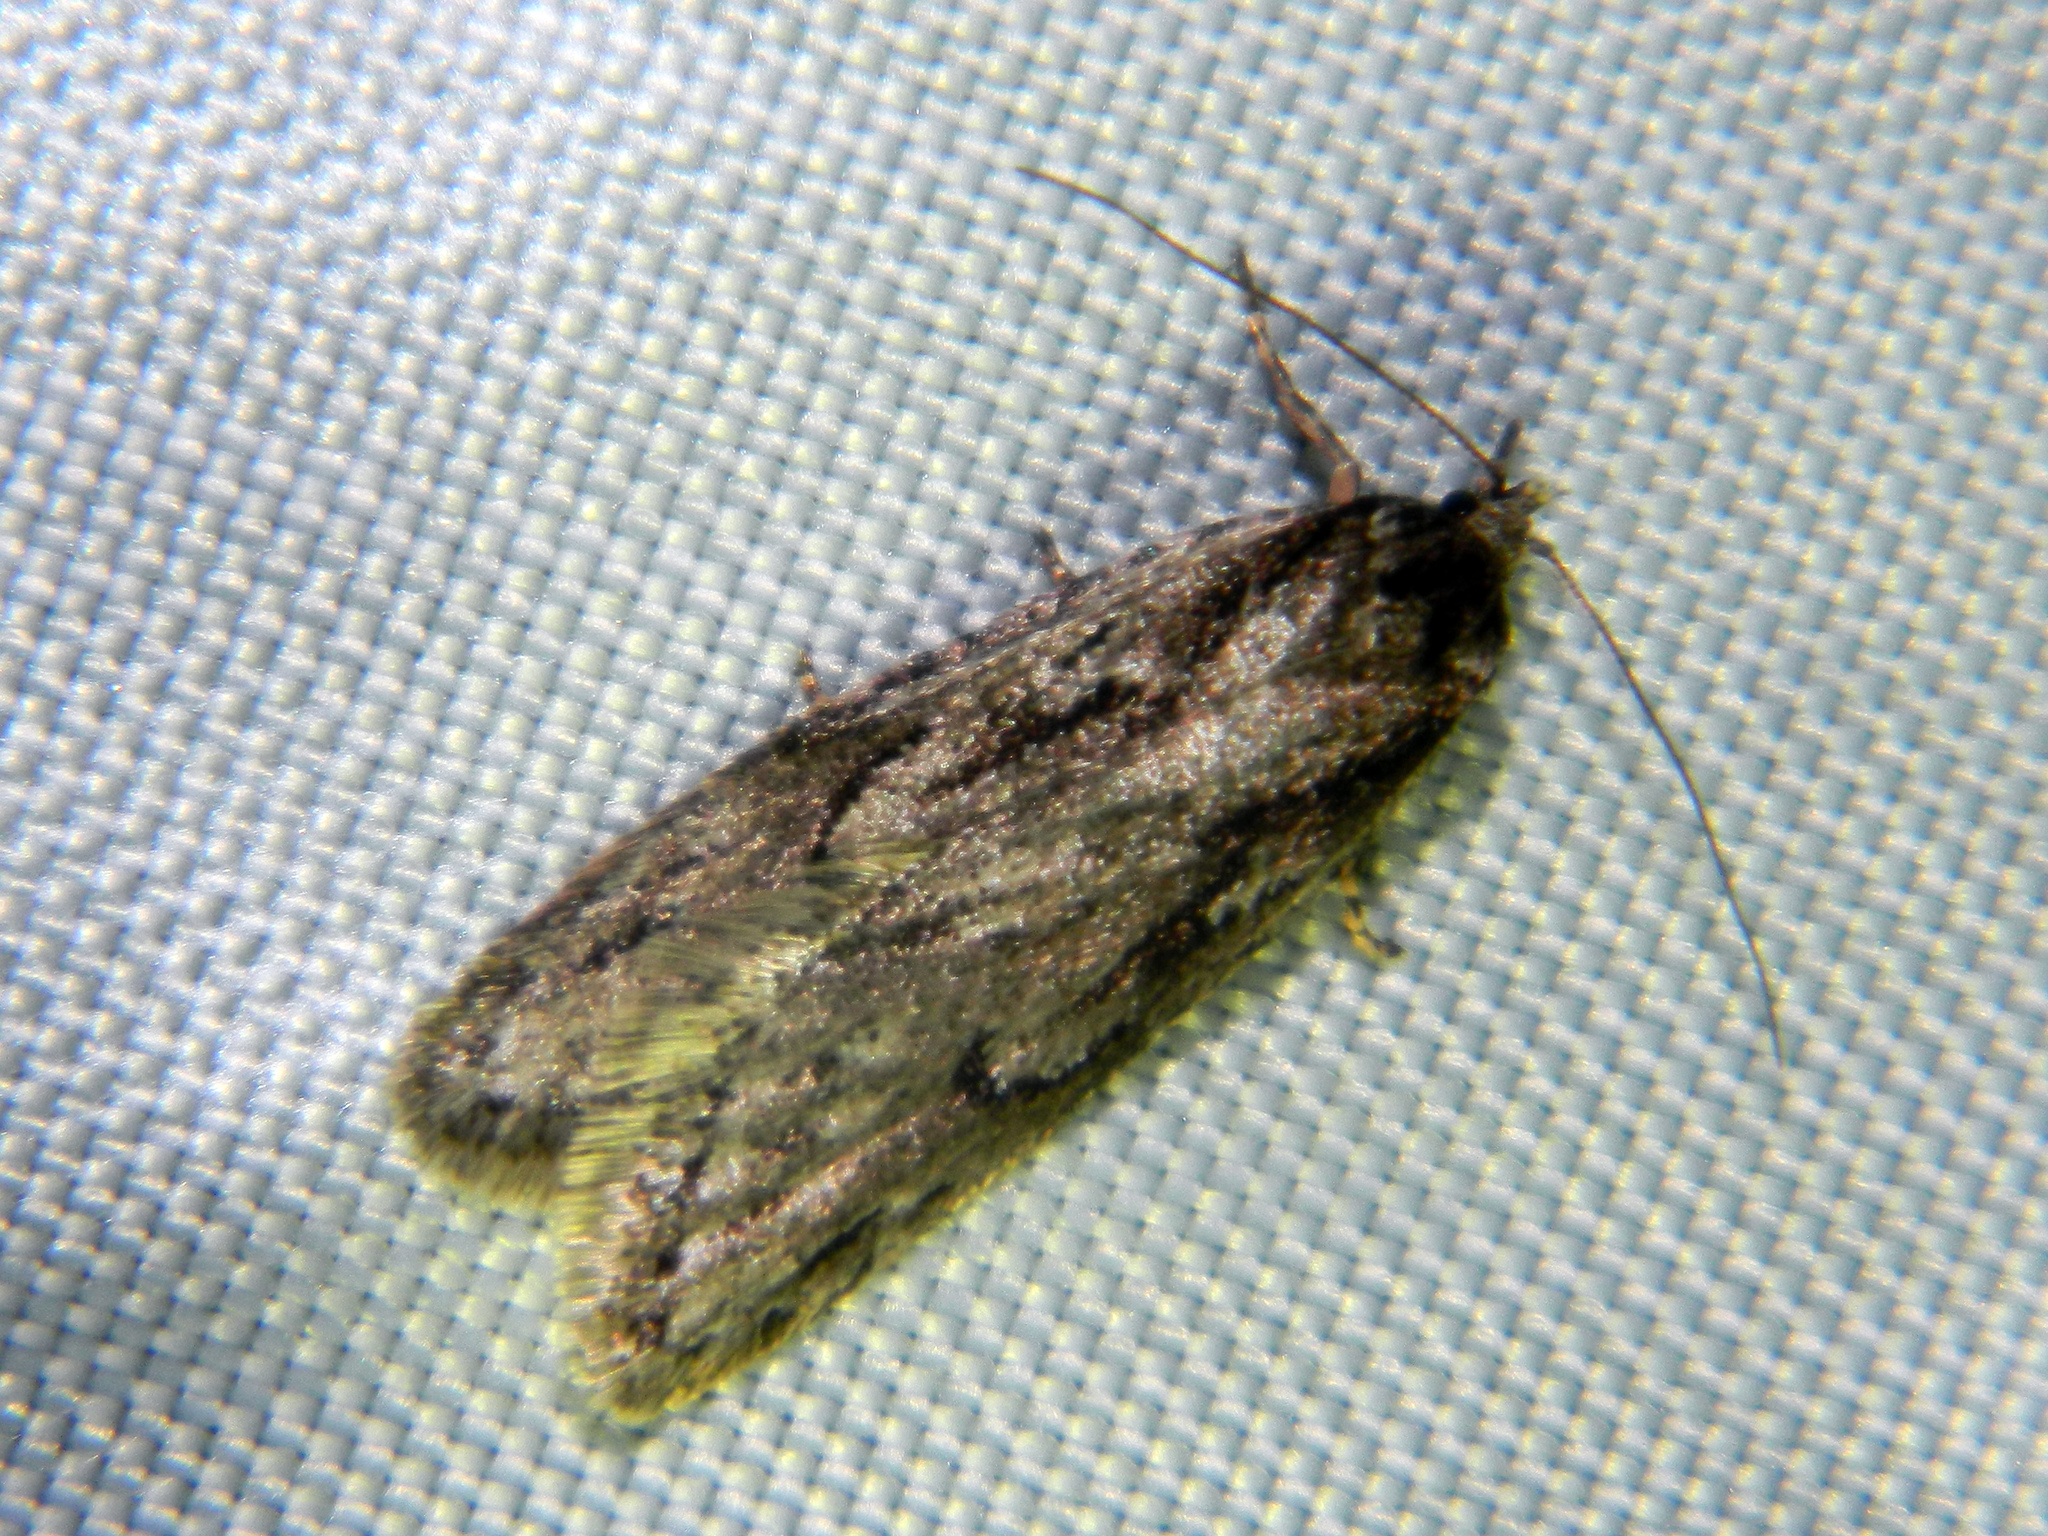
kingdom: Animalia
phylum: Arthropoda
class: Insecta
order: Lepidoptera
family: Depressariidae
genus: Semioscopis
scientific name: Semioscopis aurorella
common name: Aurora flatbody moth
